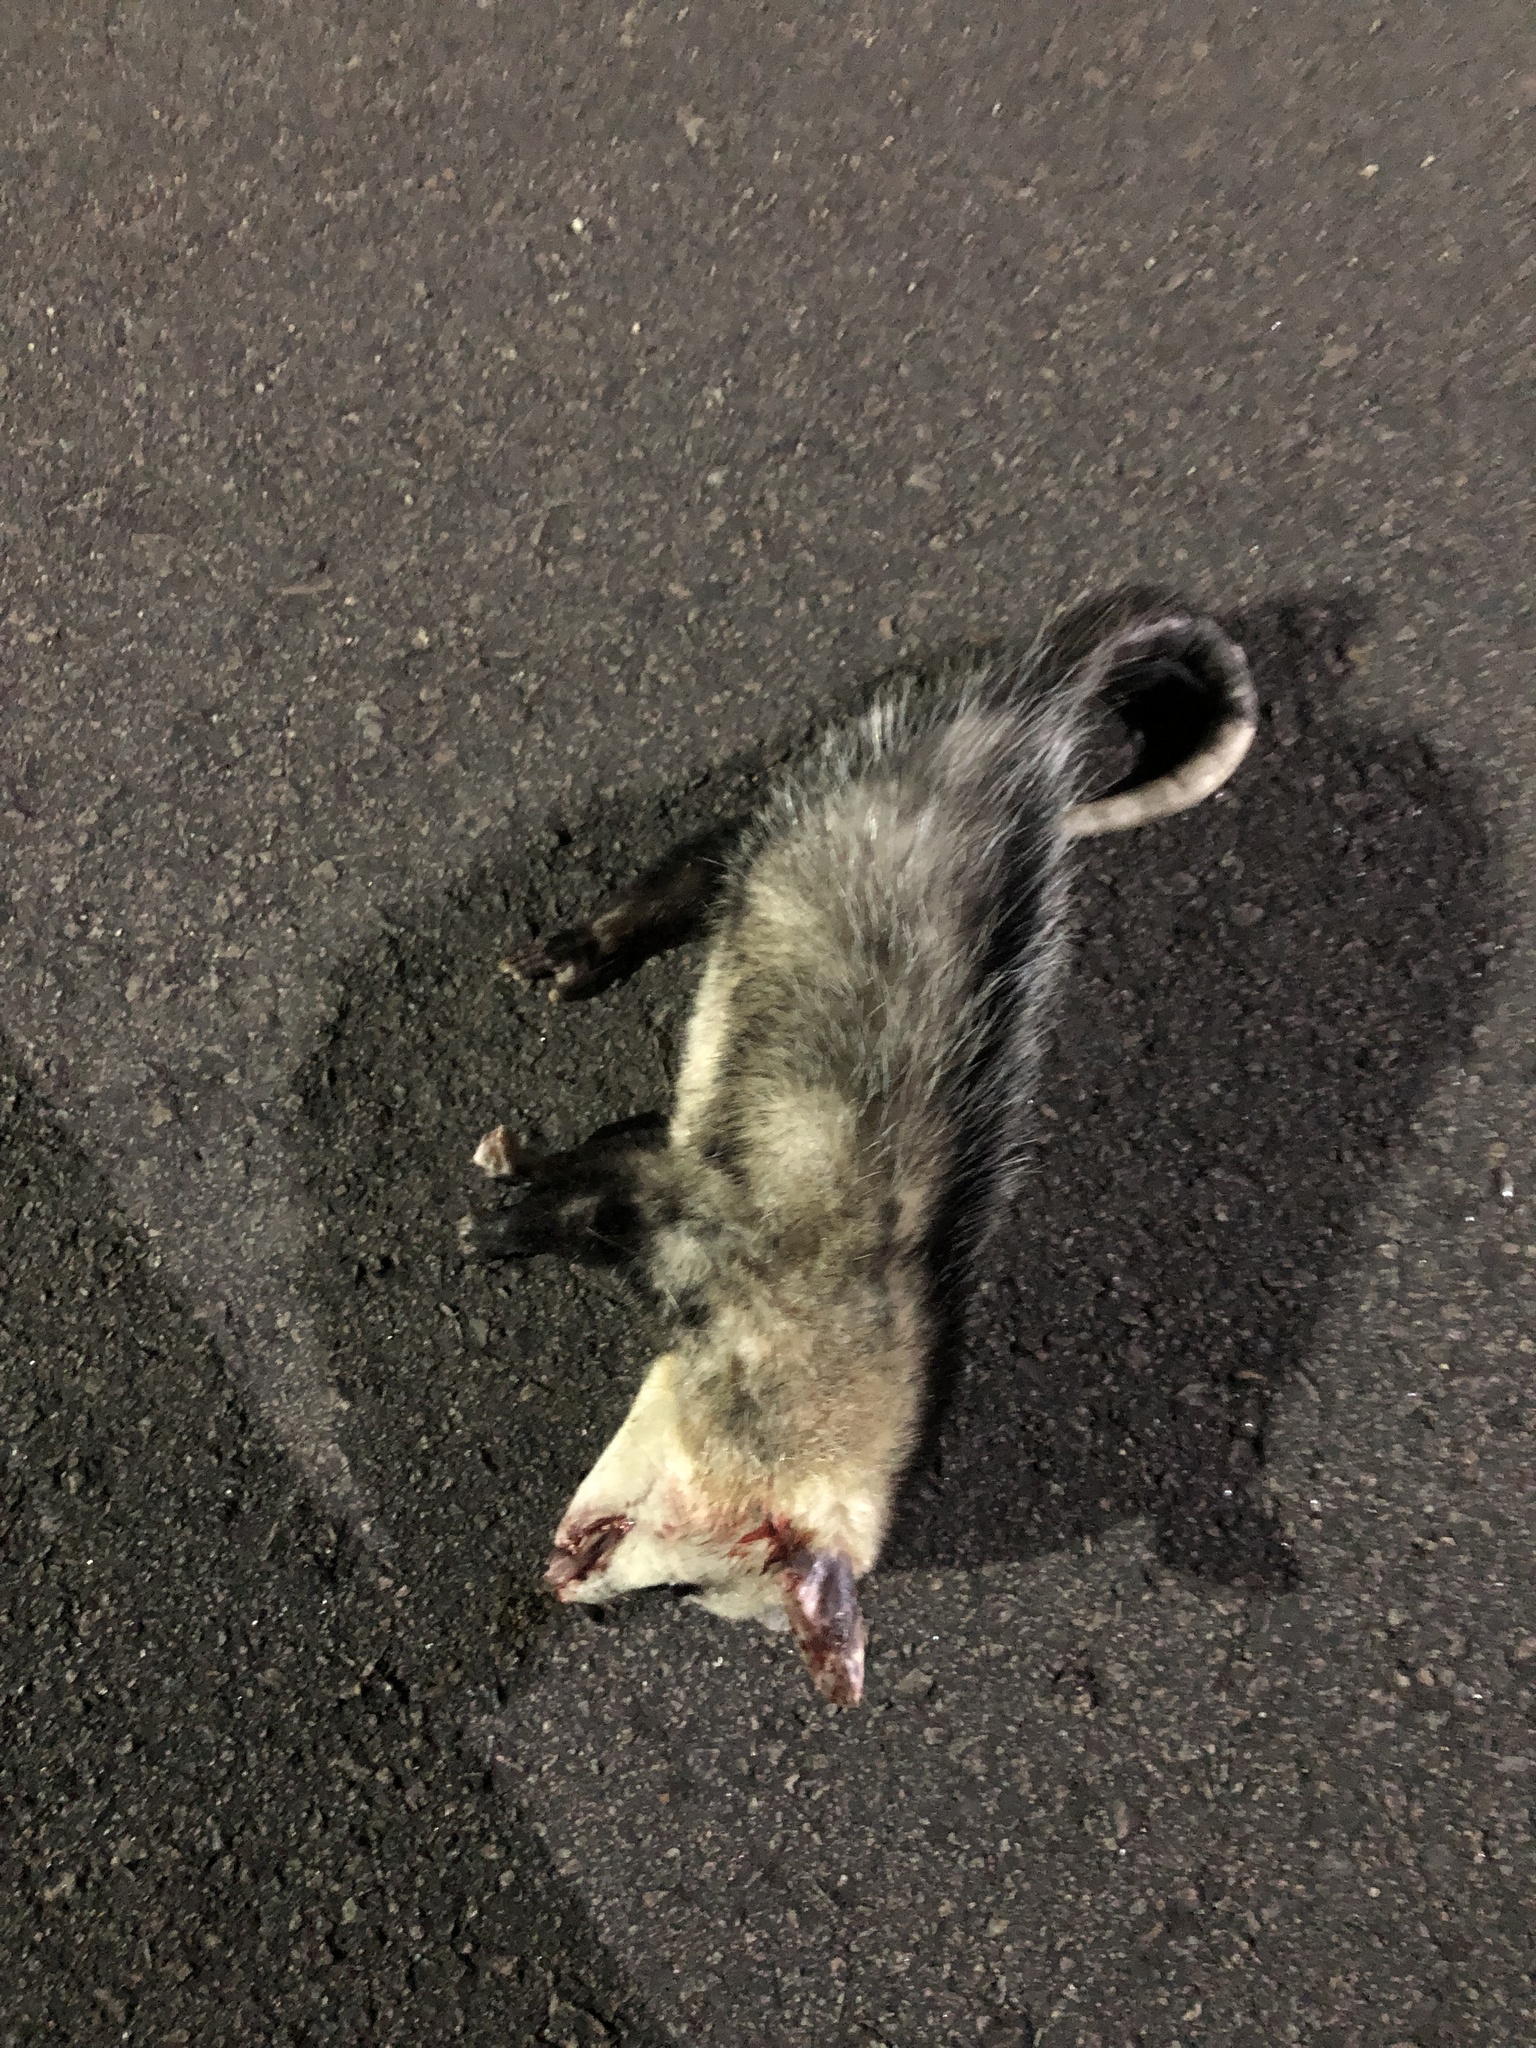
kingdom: Animalia
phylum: Chordata
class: Mammalia
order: Didelphimorphia
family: Didelphidae
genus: Didelphis
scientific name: Didelphis albiventris
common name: White-eared opossum
